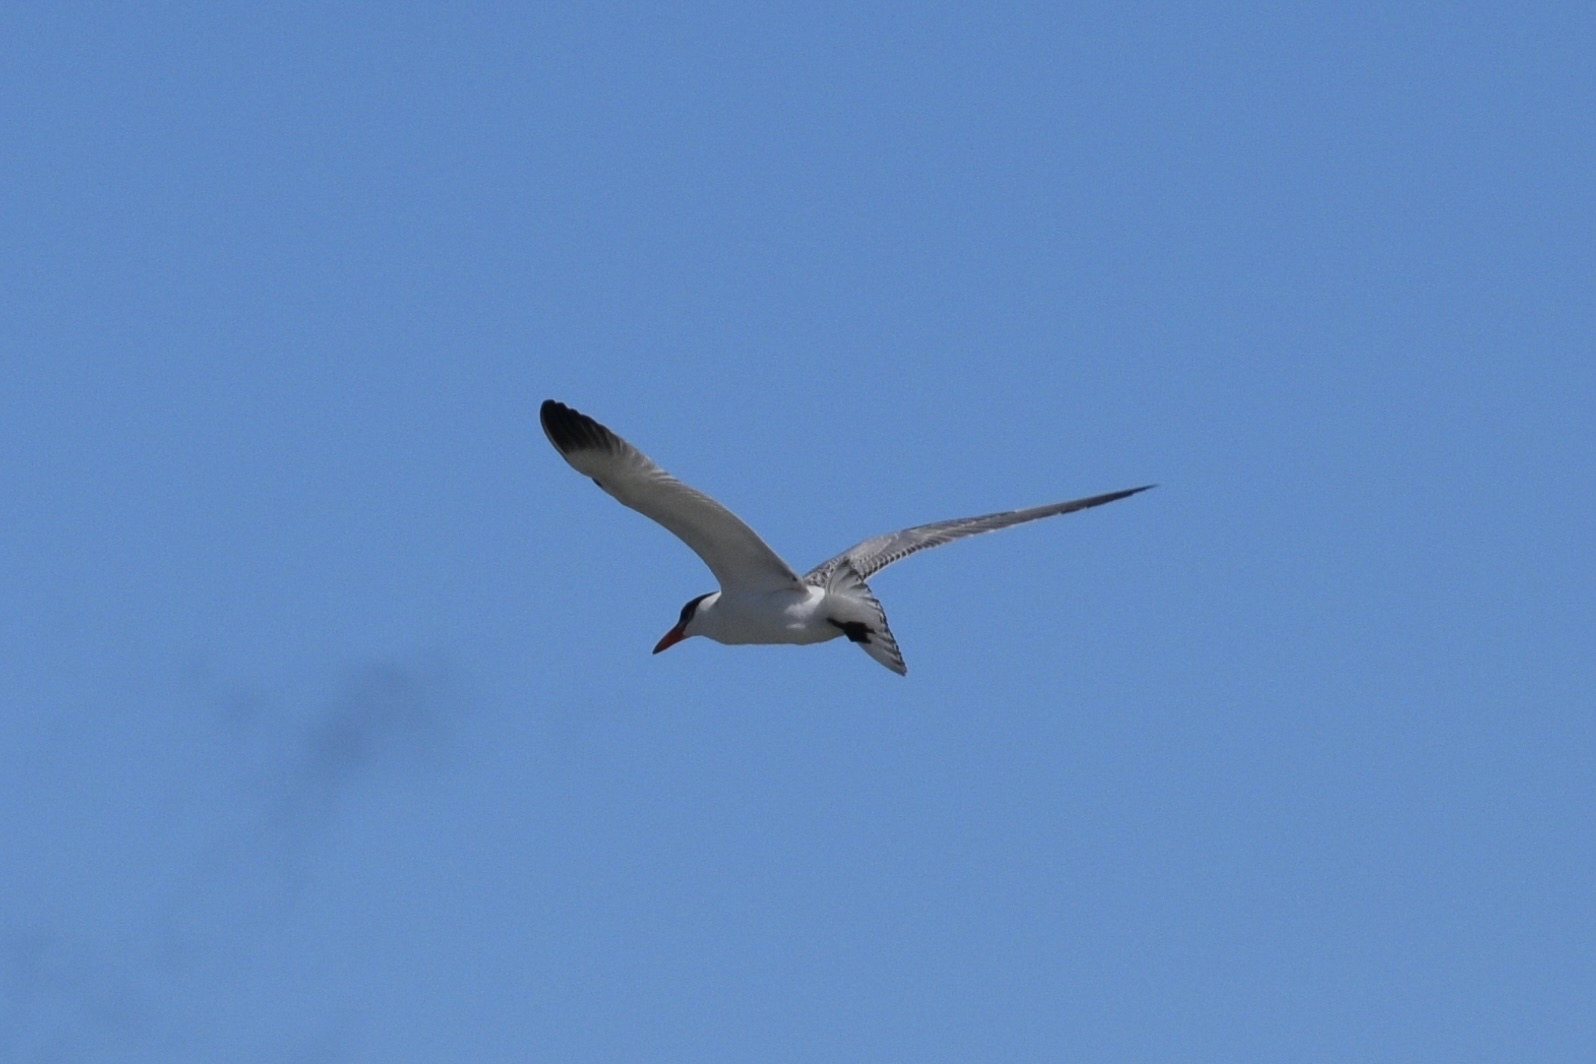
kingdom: Animalia
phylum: Chordata
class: Aves
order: Charadriiformes
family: Laridae
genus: Hydroprogne
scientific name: Hydroprogne caspia
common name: Caspian tern
